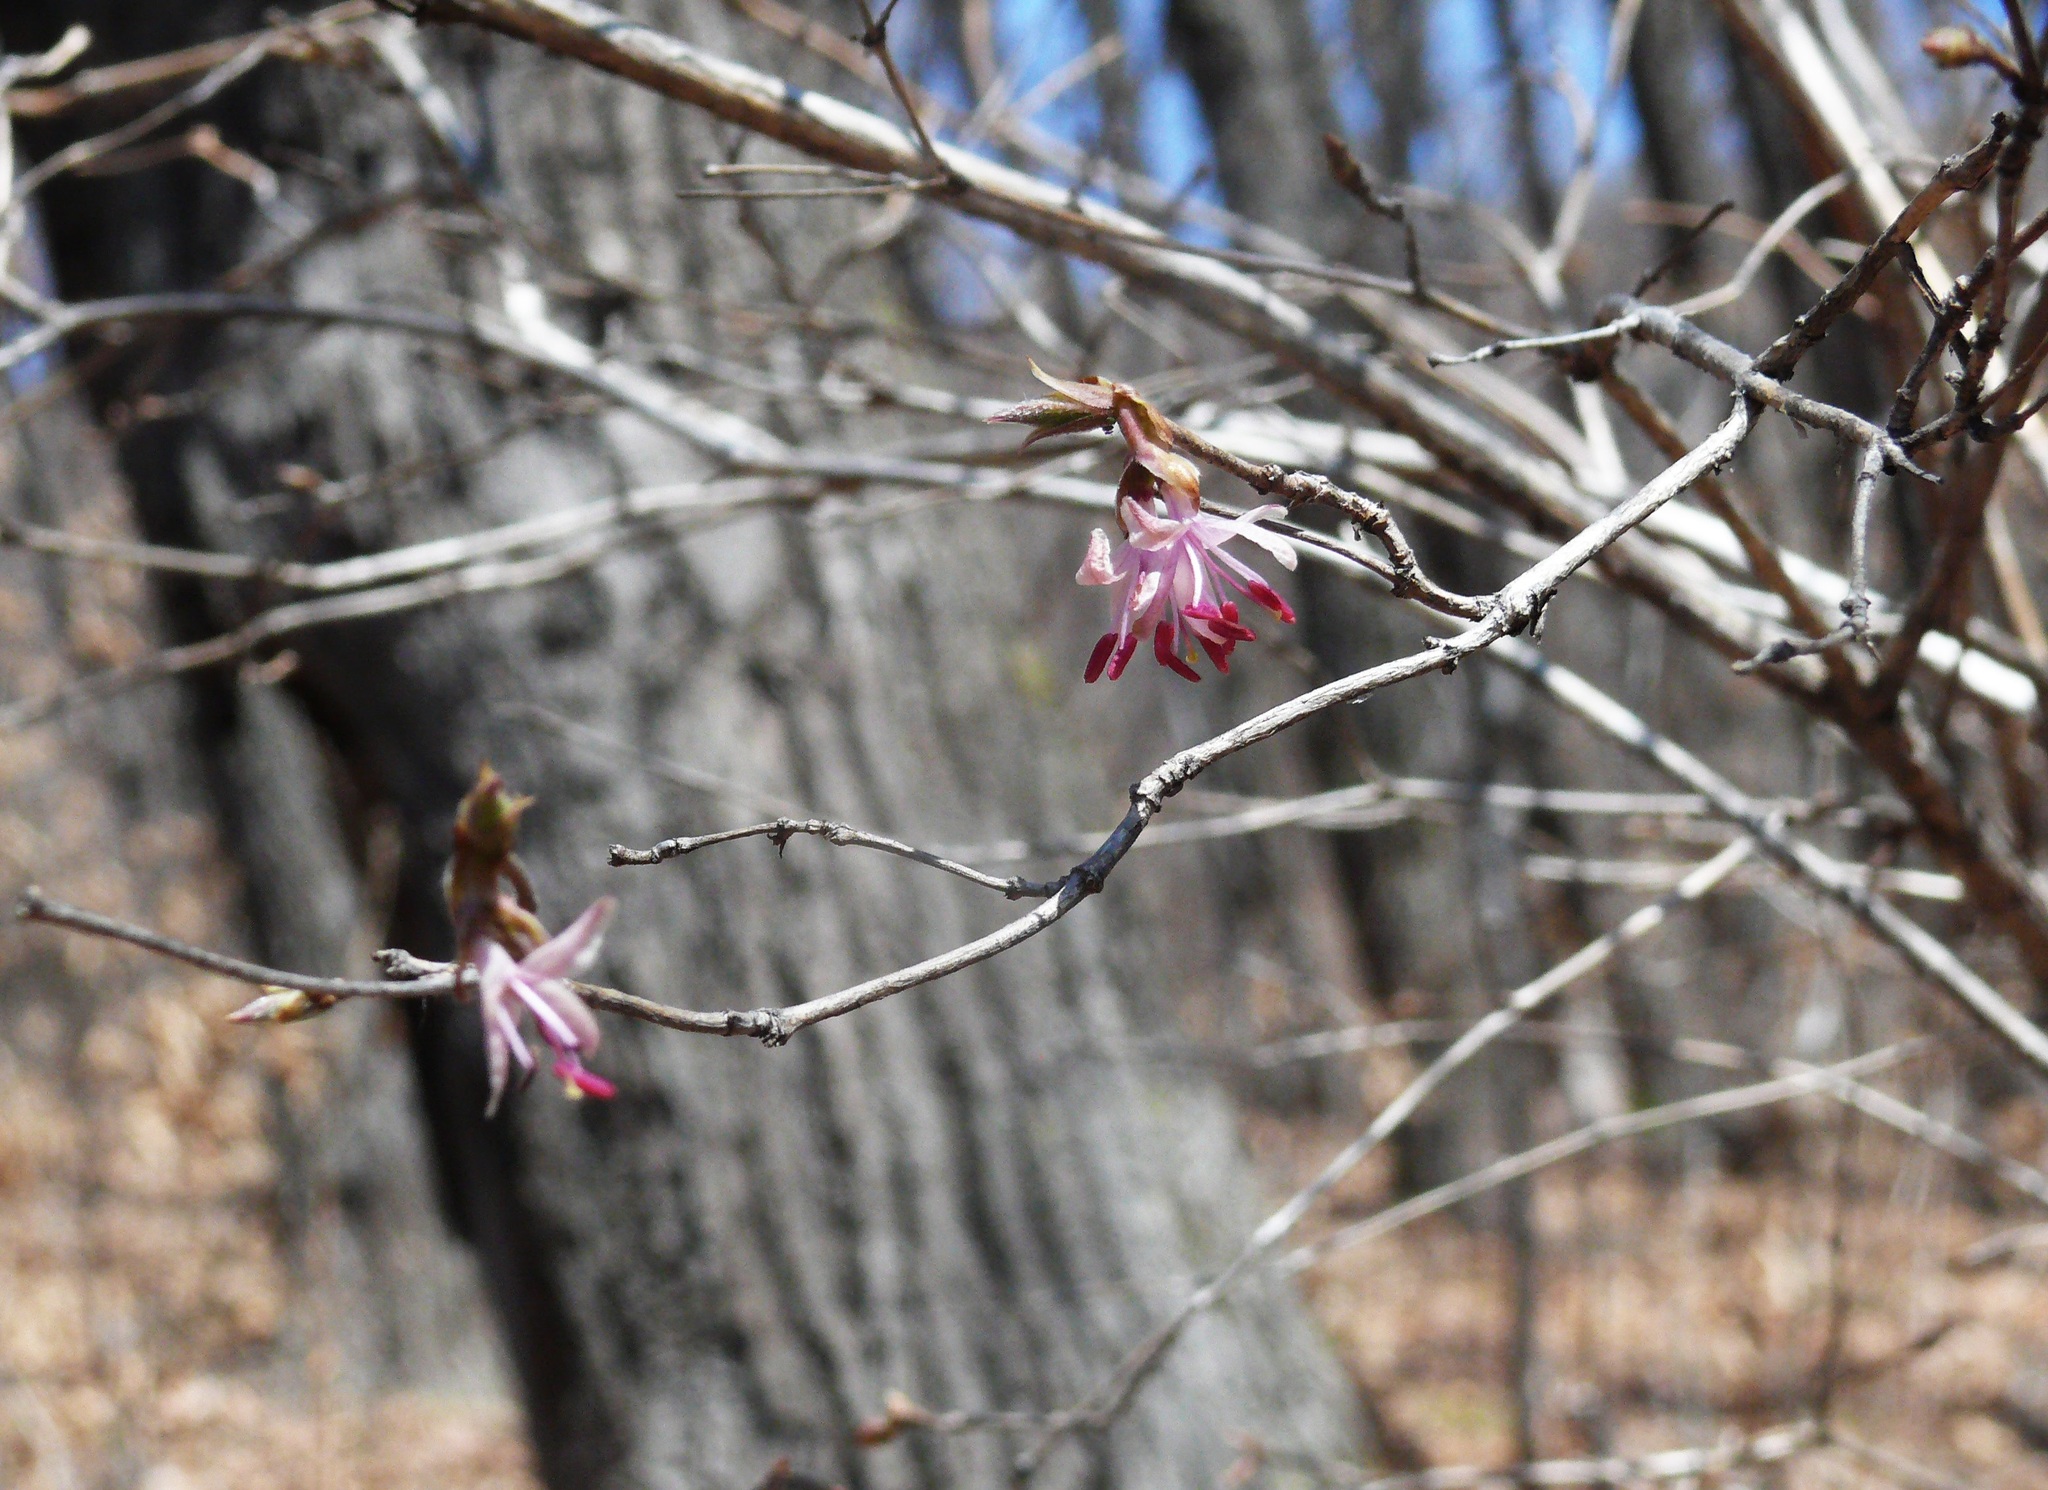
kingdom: Plantae
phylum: Tracheophyta
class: Magnoliopsida
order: Dipsacales
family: Caprifoliaceae
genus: Lonicera
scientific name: Lonicera praeflorens
